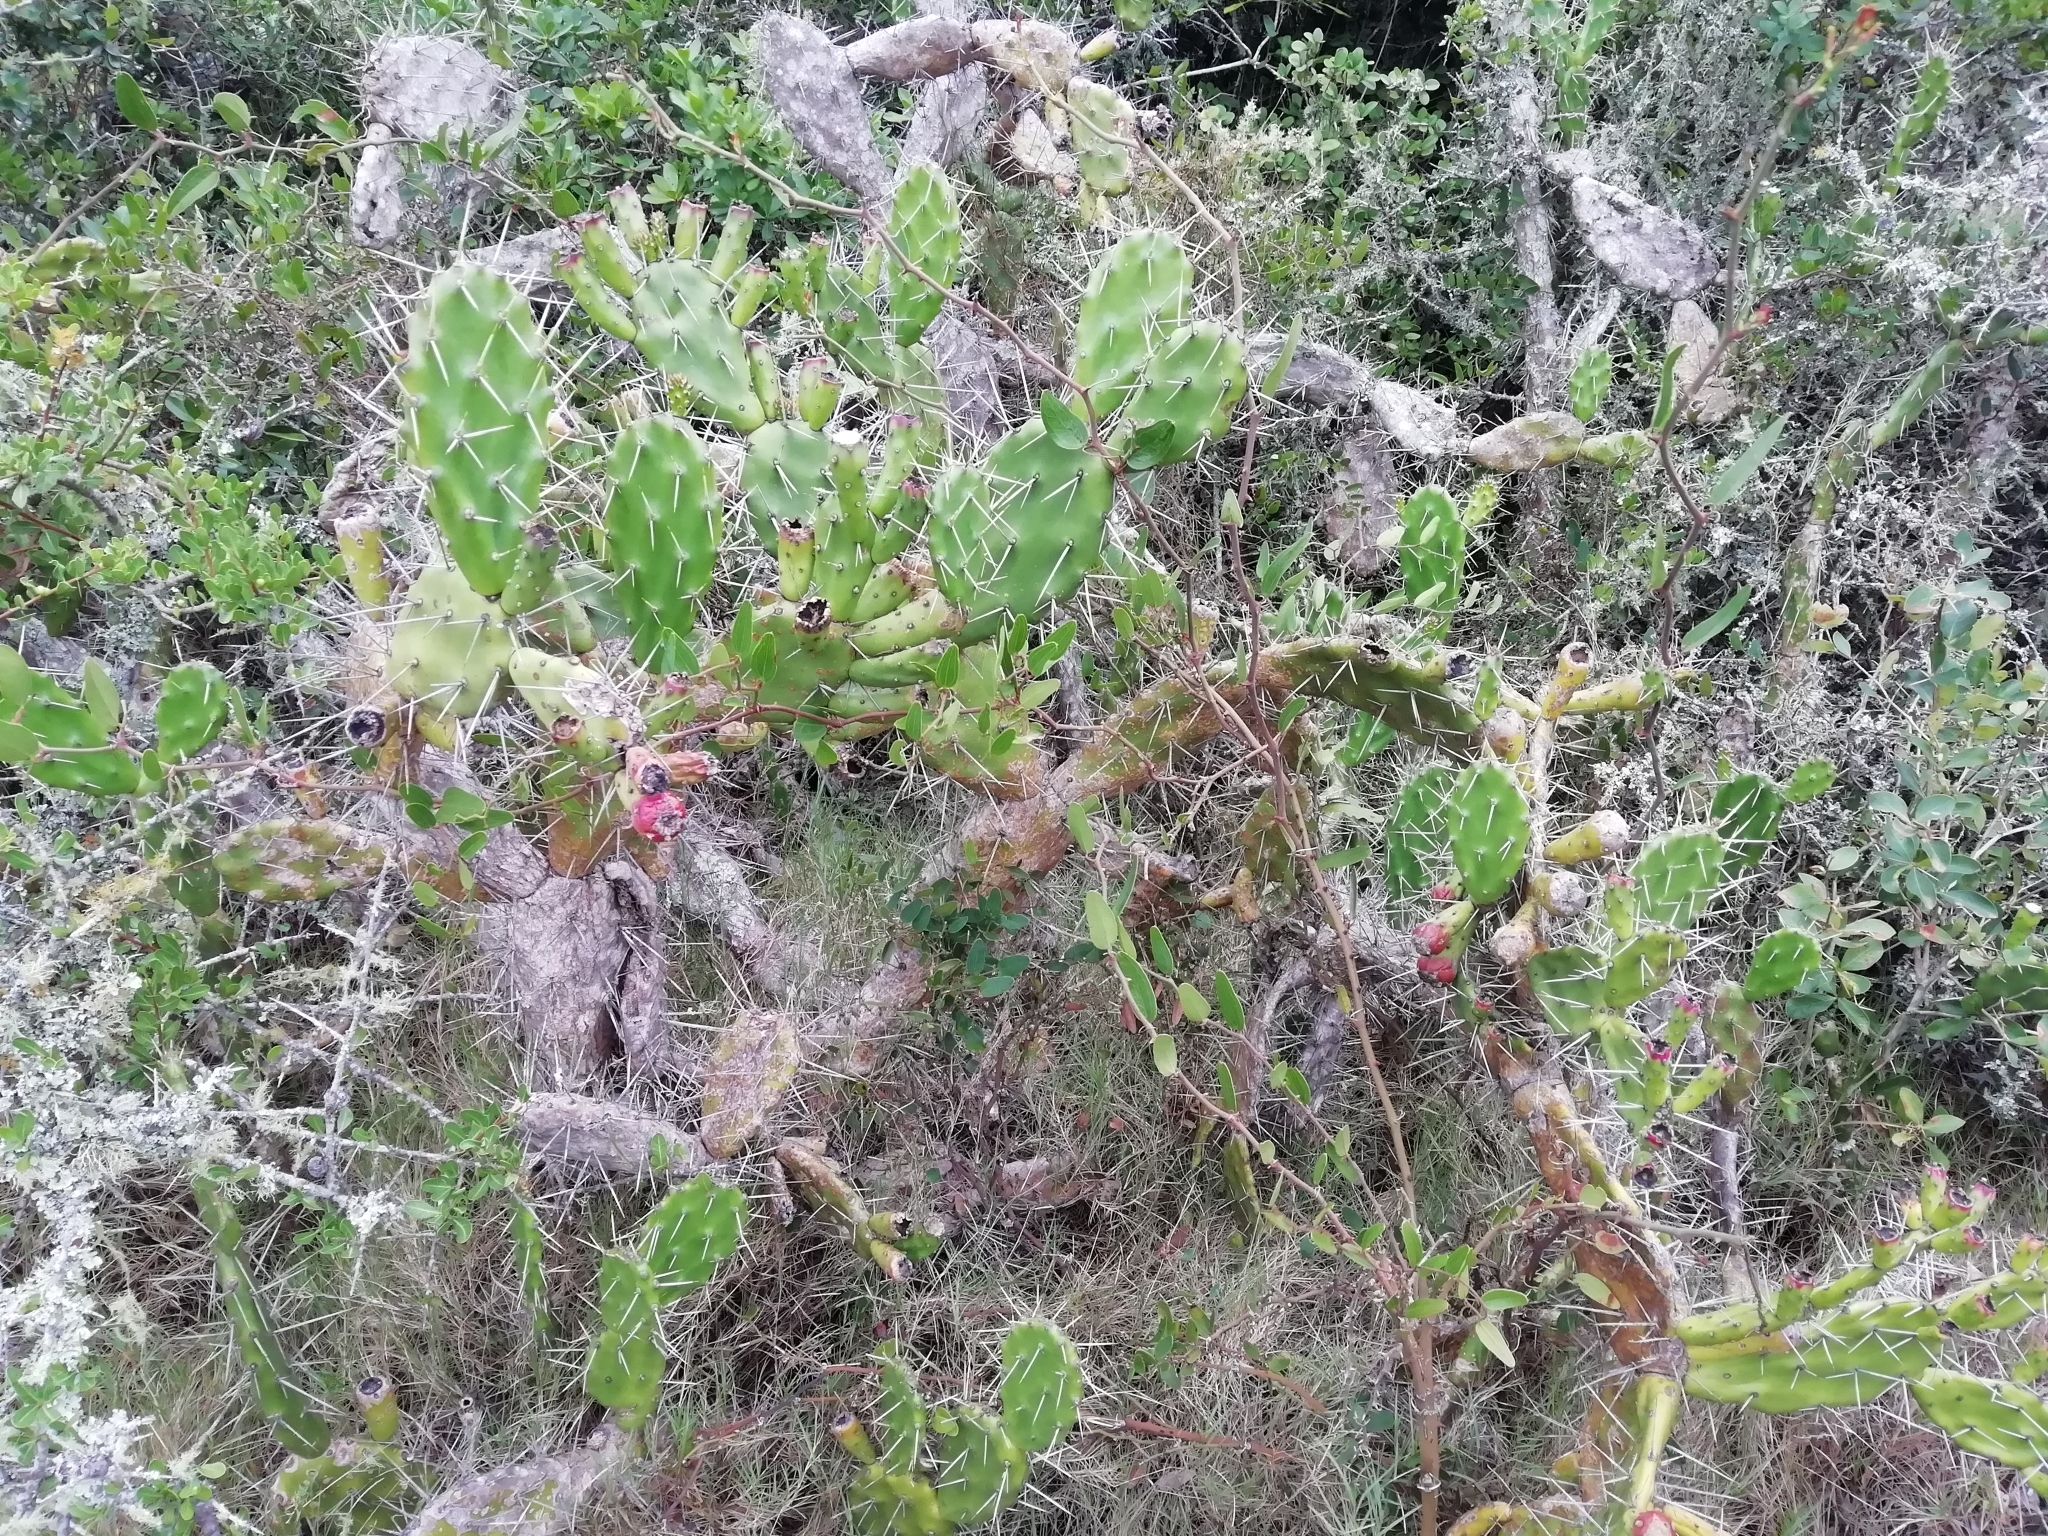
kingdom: Plantae
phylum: Tracheophyta
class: Magnoliopsida
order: Caryophyllales
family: Cactaceae
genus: Opuntia
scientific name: Opuntia arechavaletae
